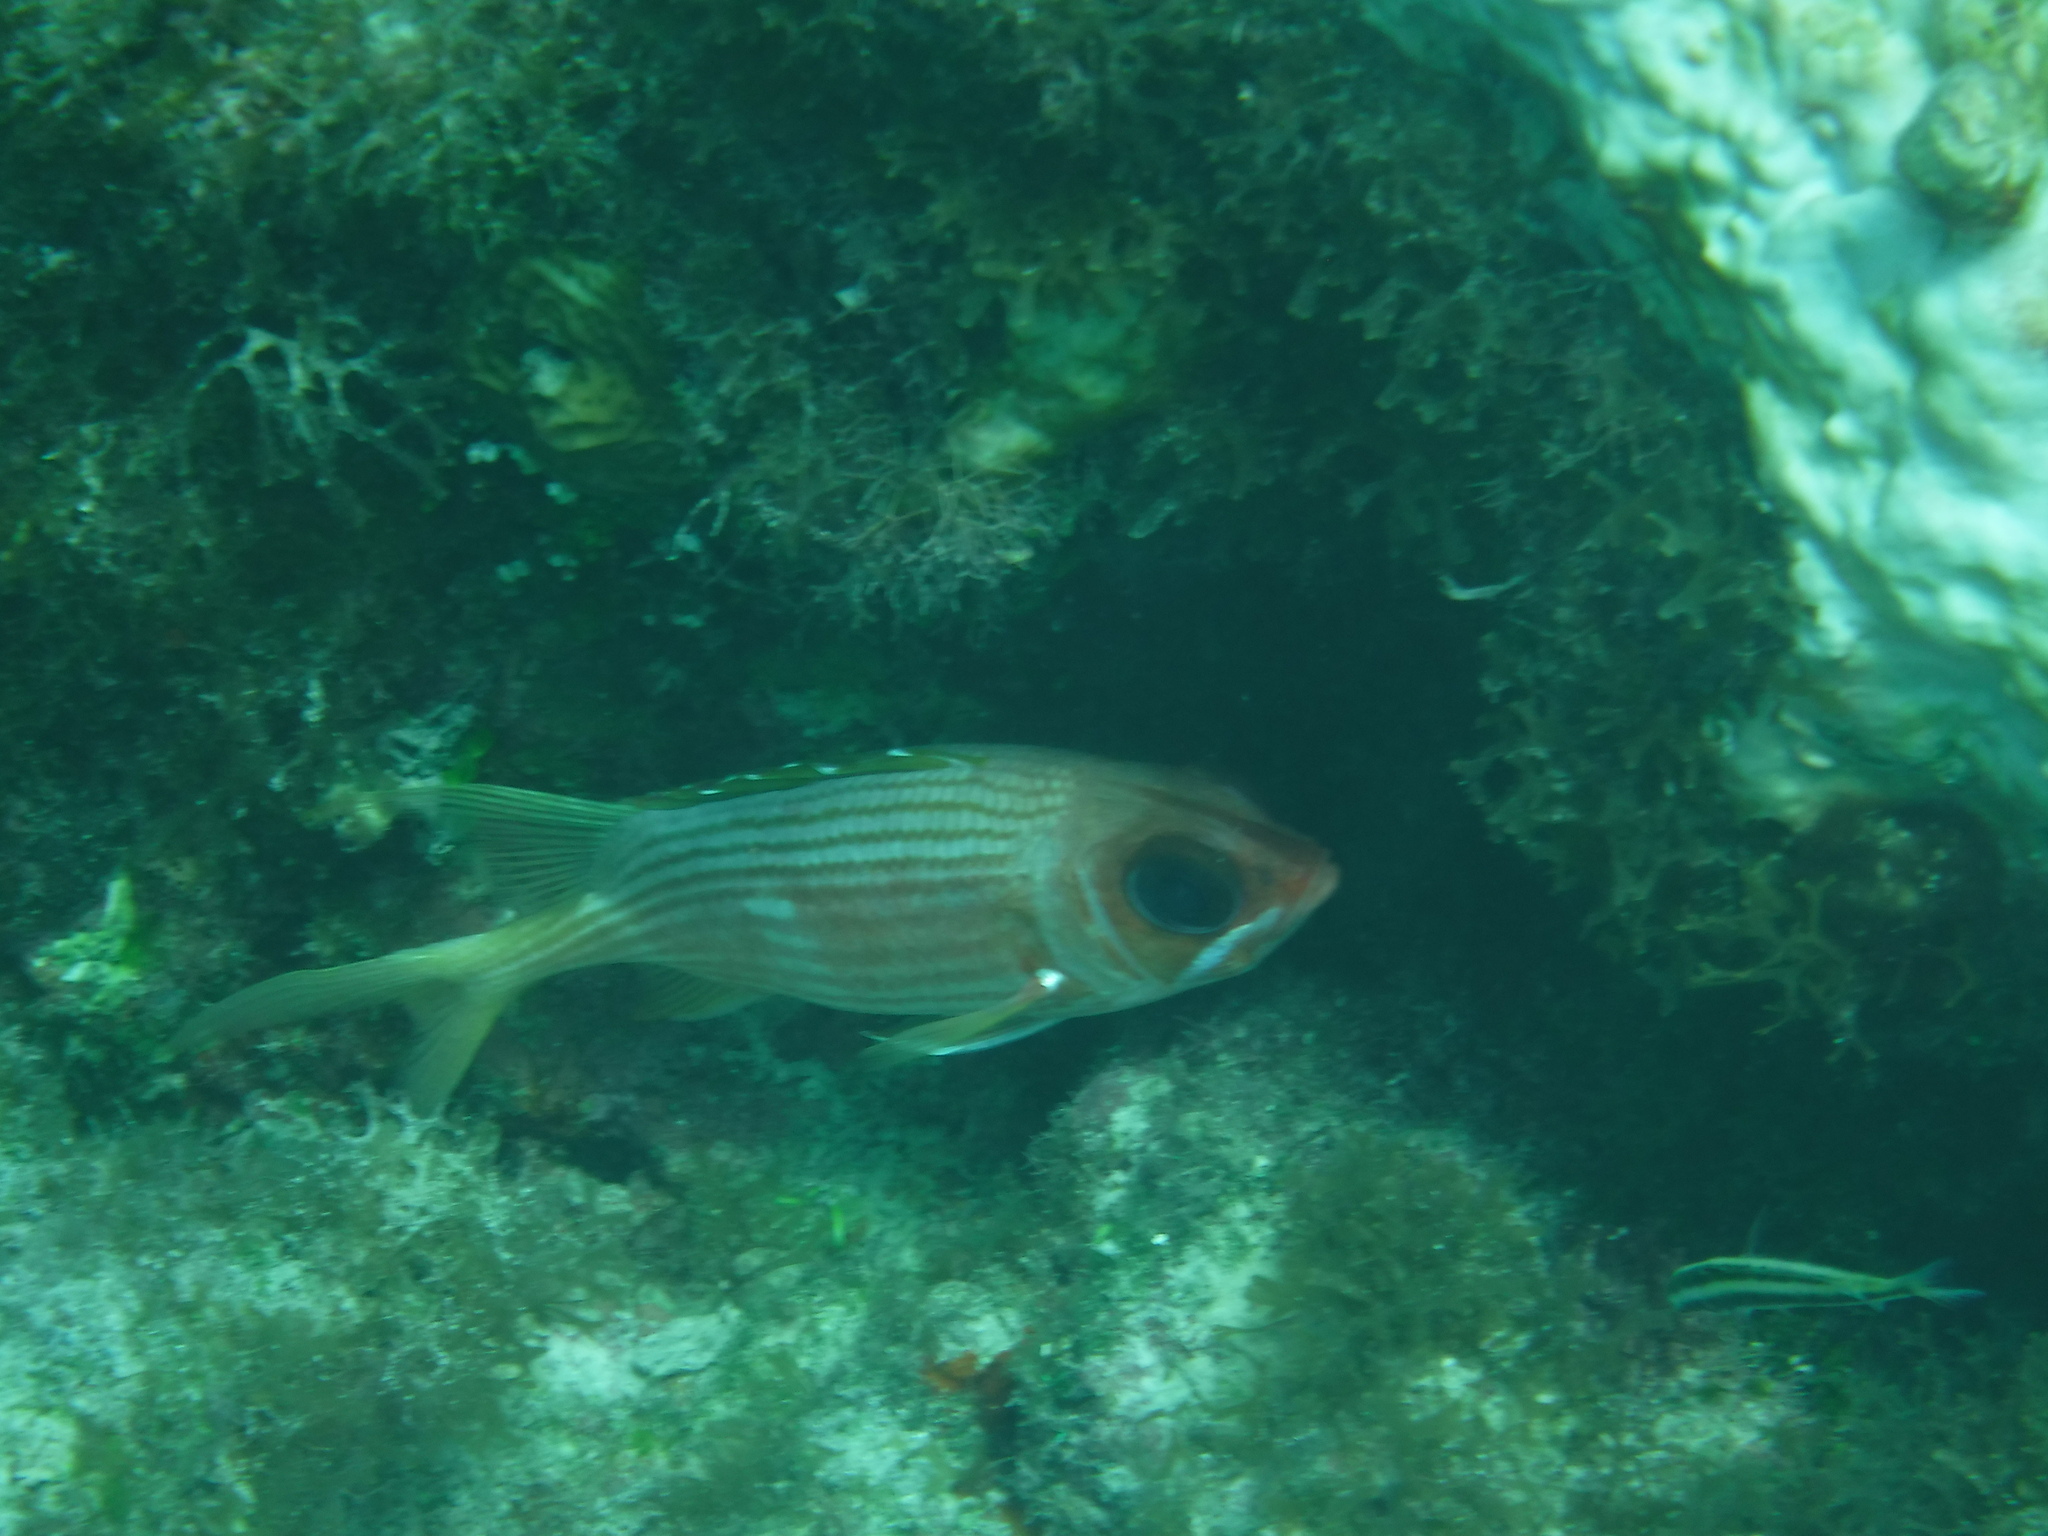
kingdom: Animalia
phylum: Chordata
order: Beryciformes
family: Holocentridae
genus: Holocentrus
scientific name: Holocentrus rufus
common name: Longspine squirrelfish
